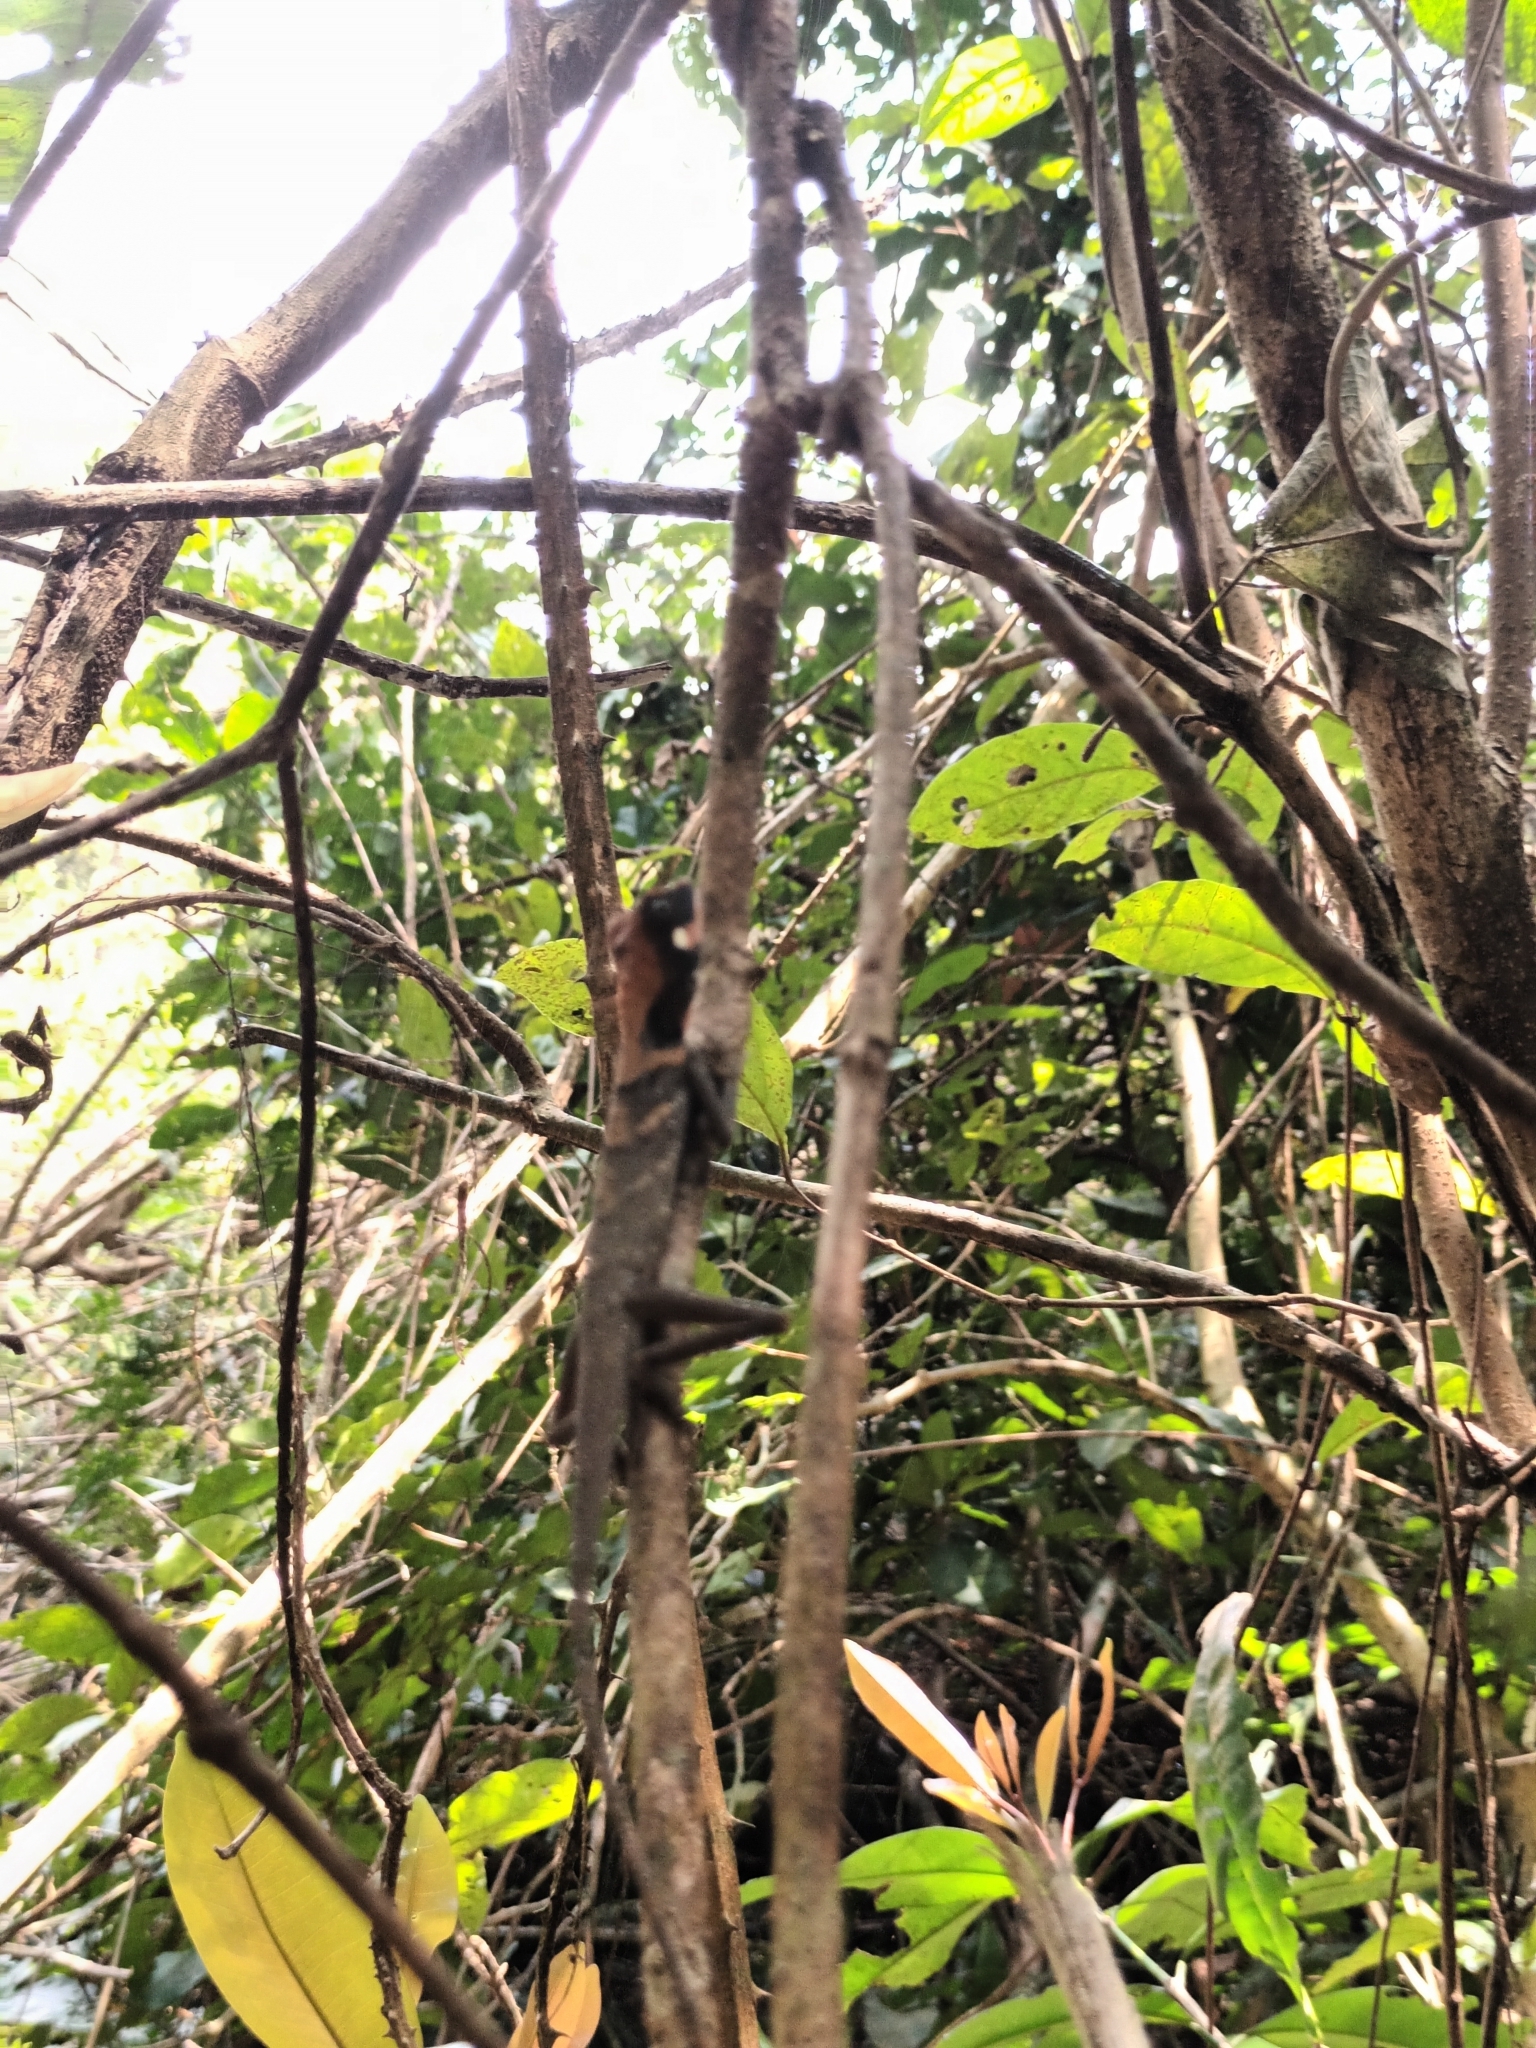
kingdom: Animalia
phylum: Chordata
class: Squamata
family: Agamidae
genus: Monilesaurus
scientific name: Monilesaurus ellioti
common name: Elliot's forest lizard
